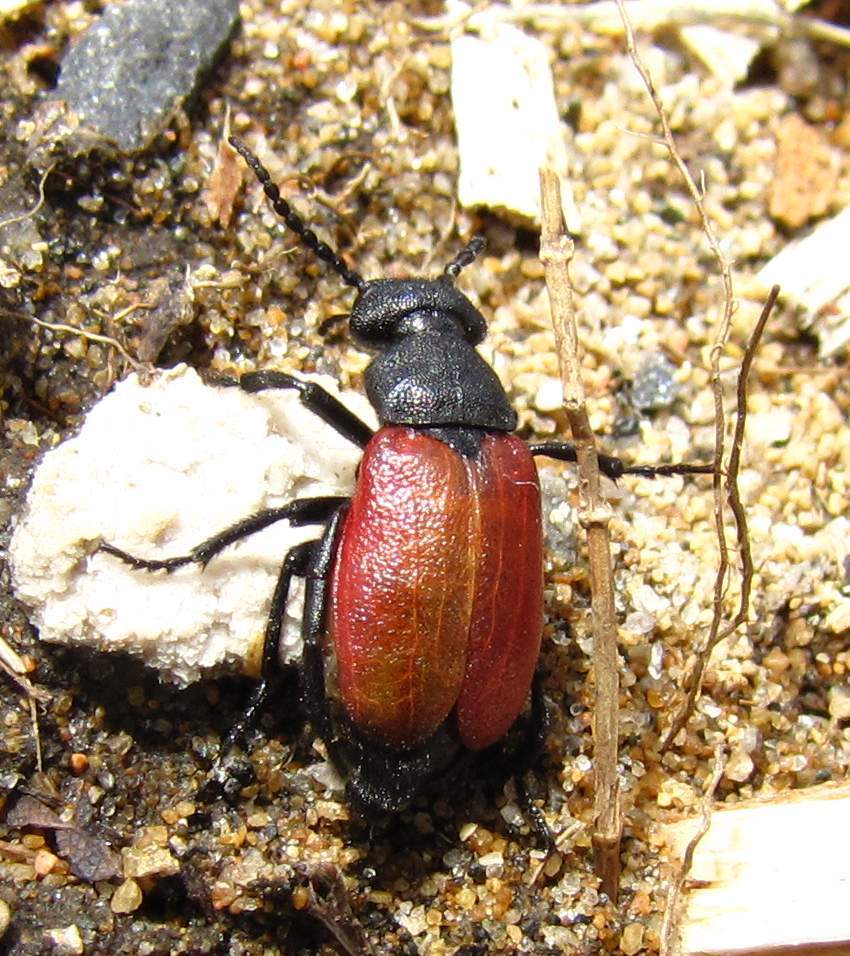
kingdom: Animalia
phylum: Arthropoda
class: Insecta
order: Coleoptera
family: Meloidae
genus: Tricrania
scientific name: Tricrania sanguinipennis
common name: Blood-winged blister beetle
